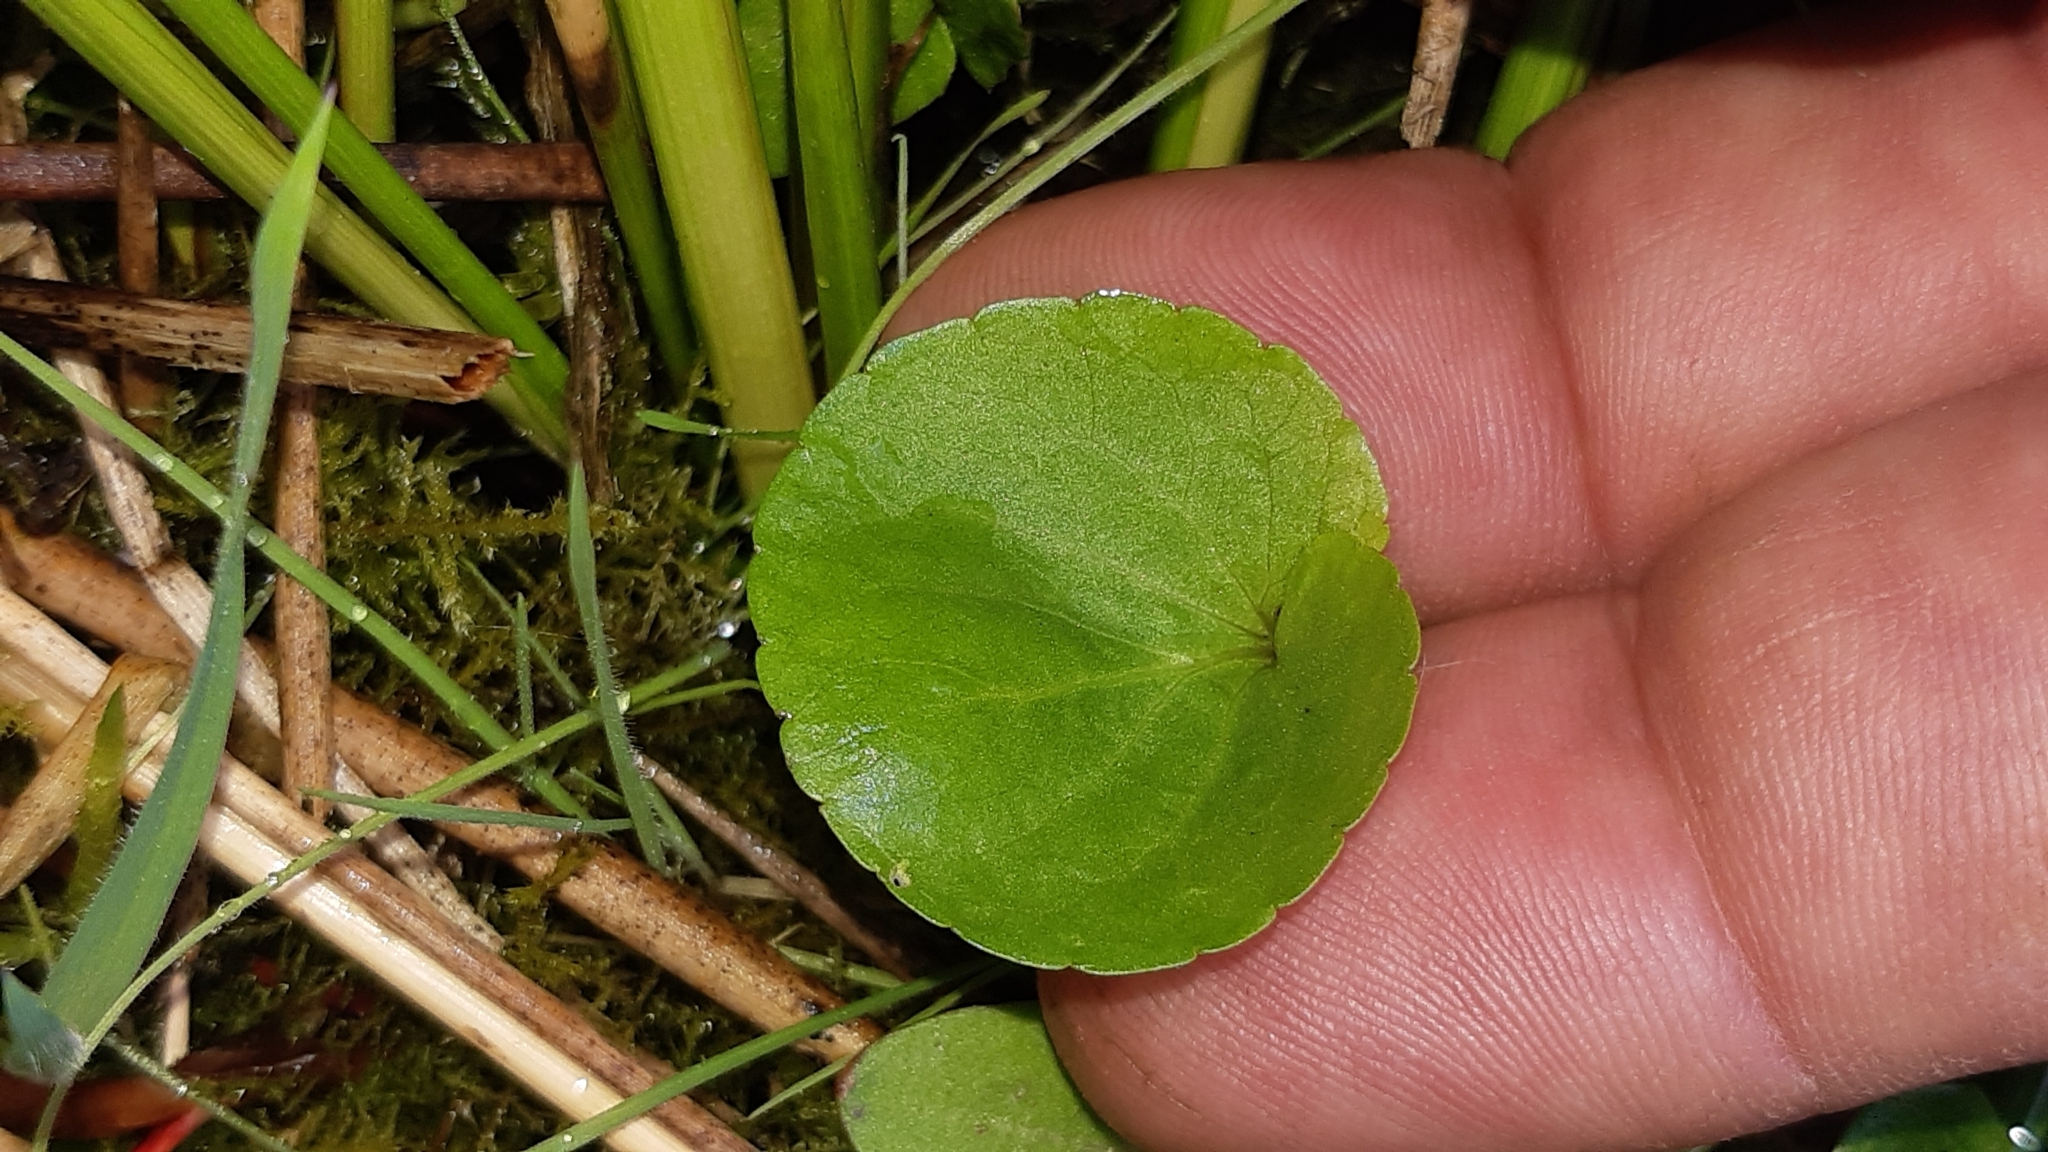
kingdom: Plantae
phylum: Tracheophyta
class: Magnoliopsida
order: Malpighiales
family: Violaceae
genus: Viola
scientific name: Viola palustris
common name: Marsh violet
